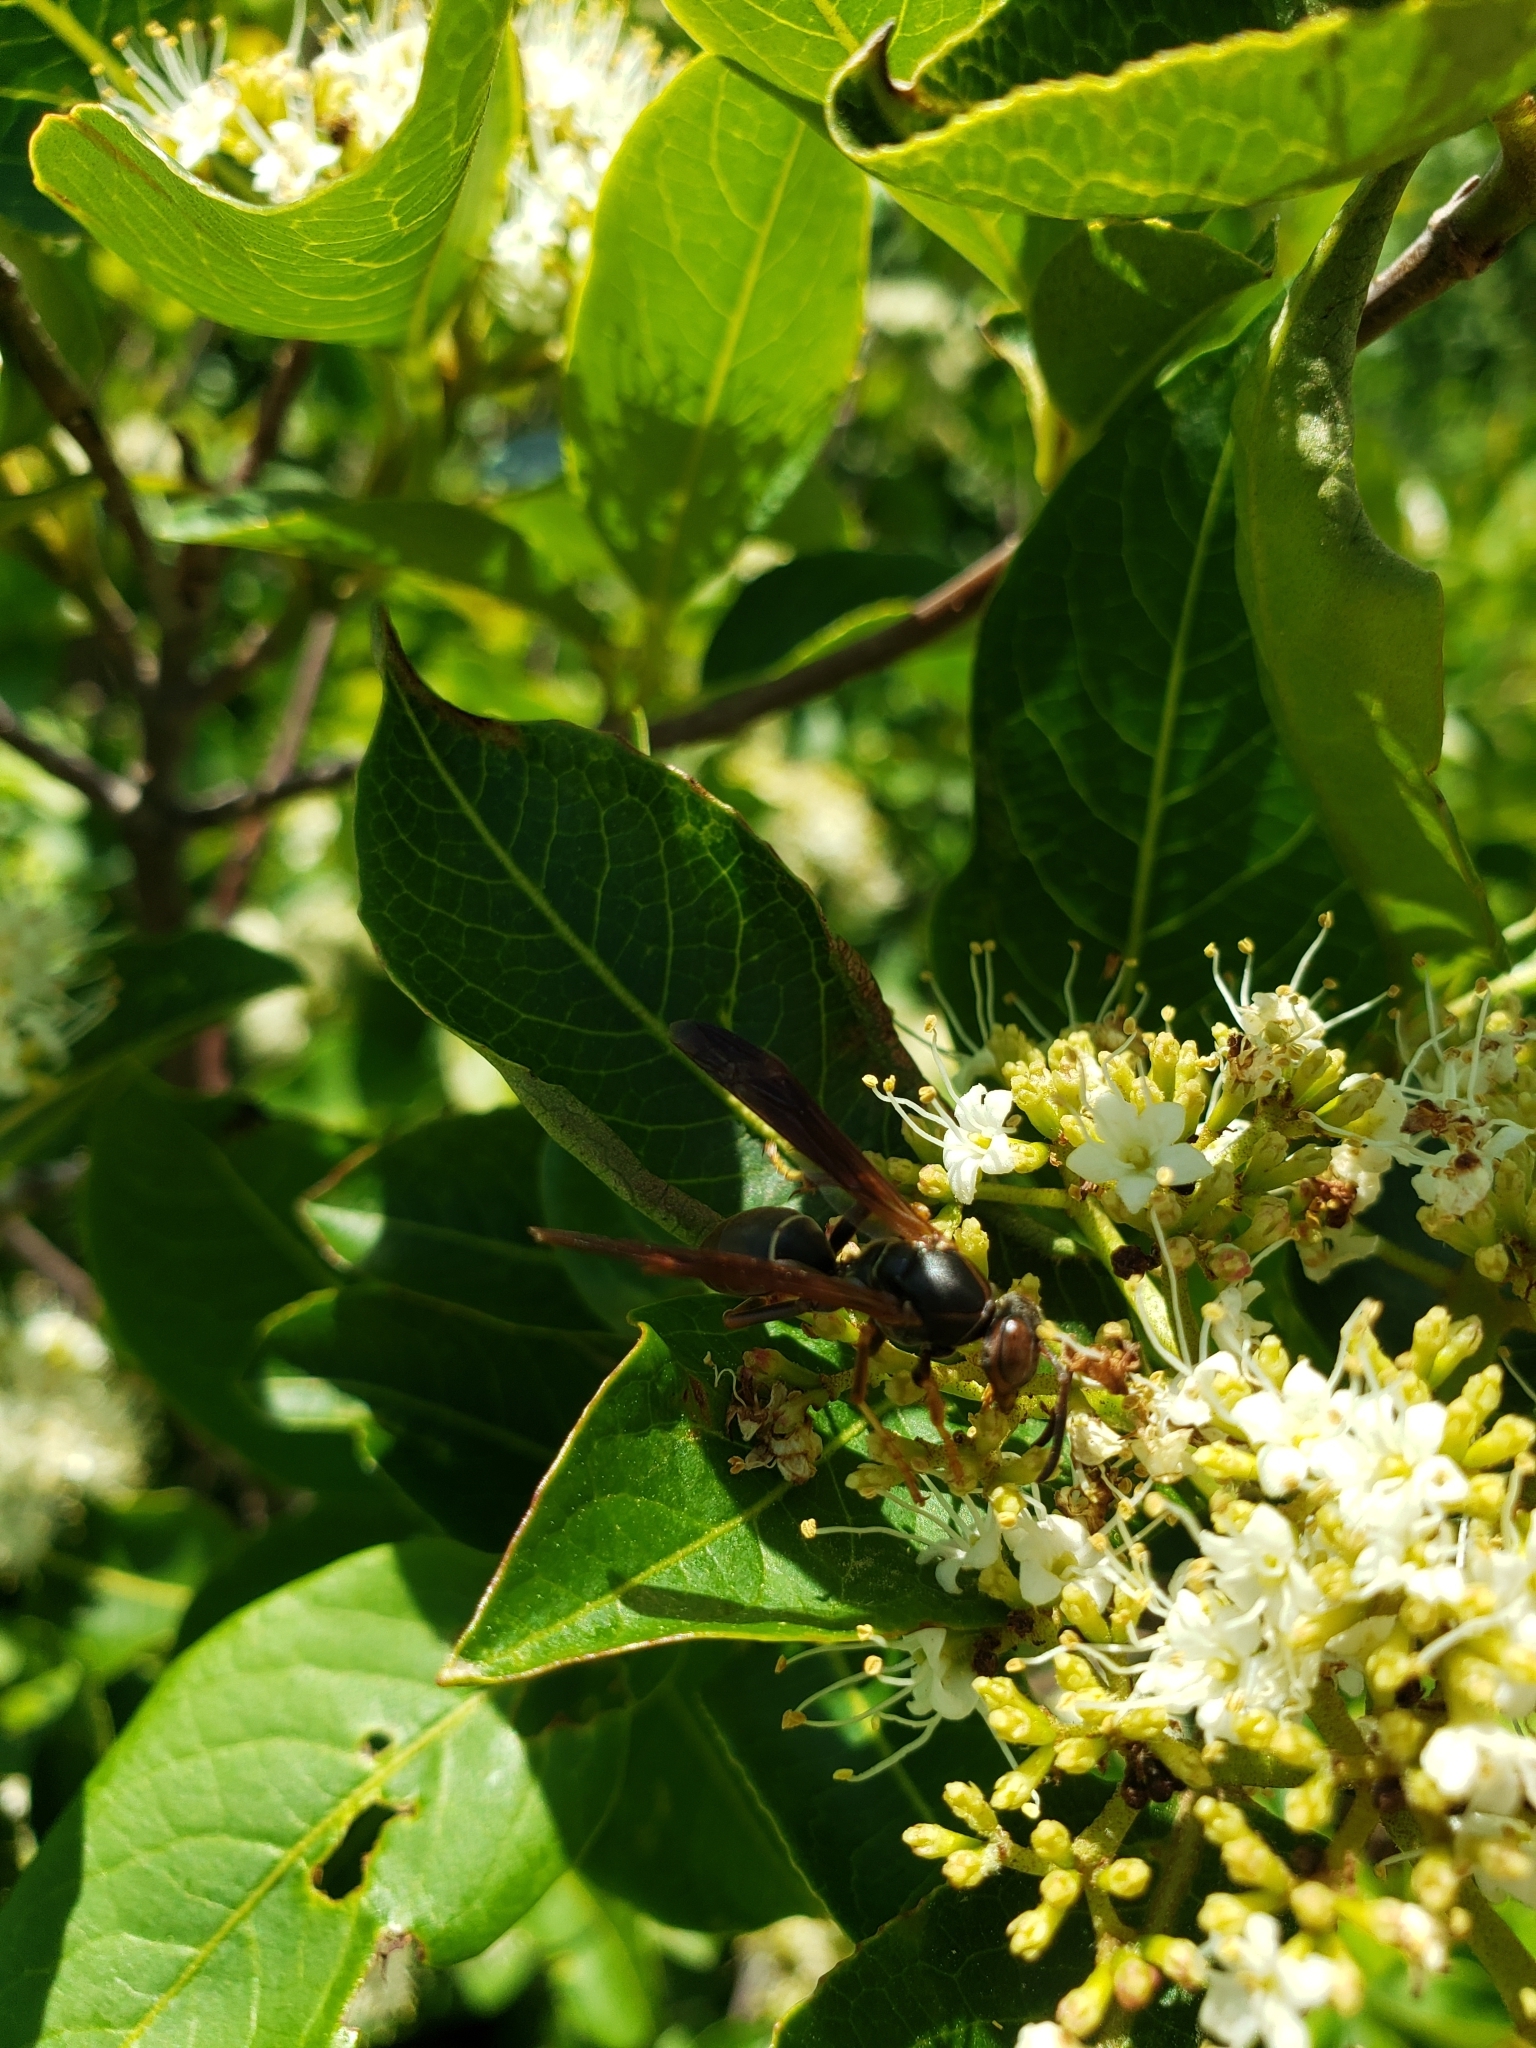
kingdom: Animalia
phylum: Arthropoda
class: Insecta
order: Hymenoptera
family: Eumenidae
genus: Polistes
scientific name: Polistes fuscatus
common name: Dark paper wasp
